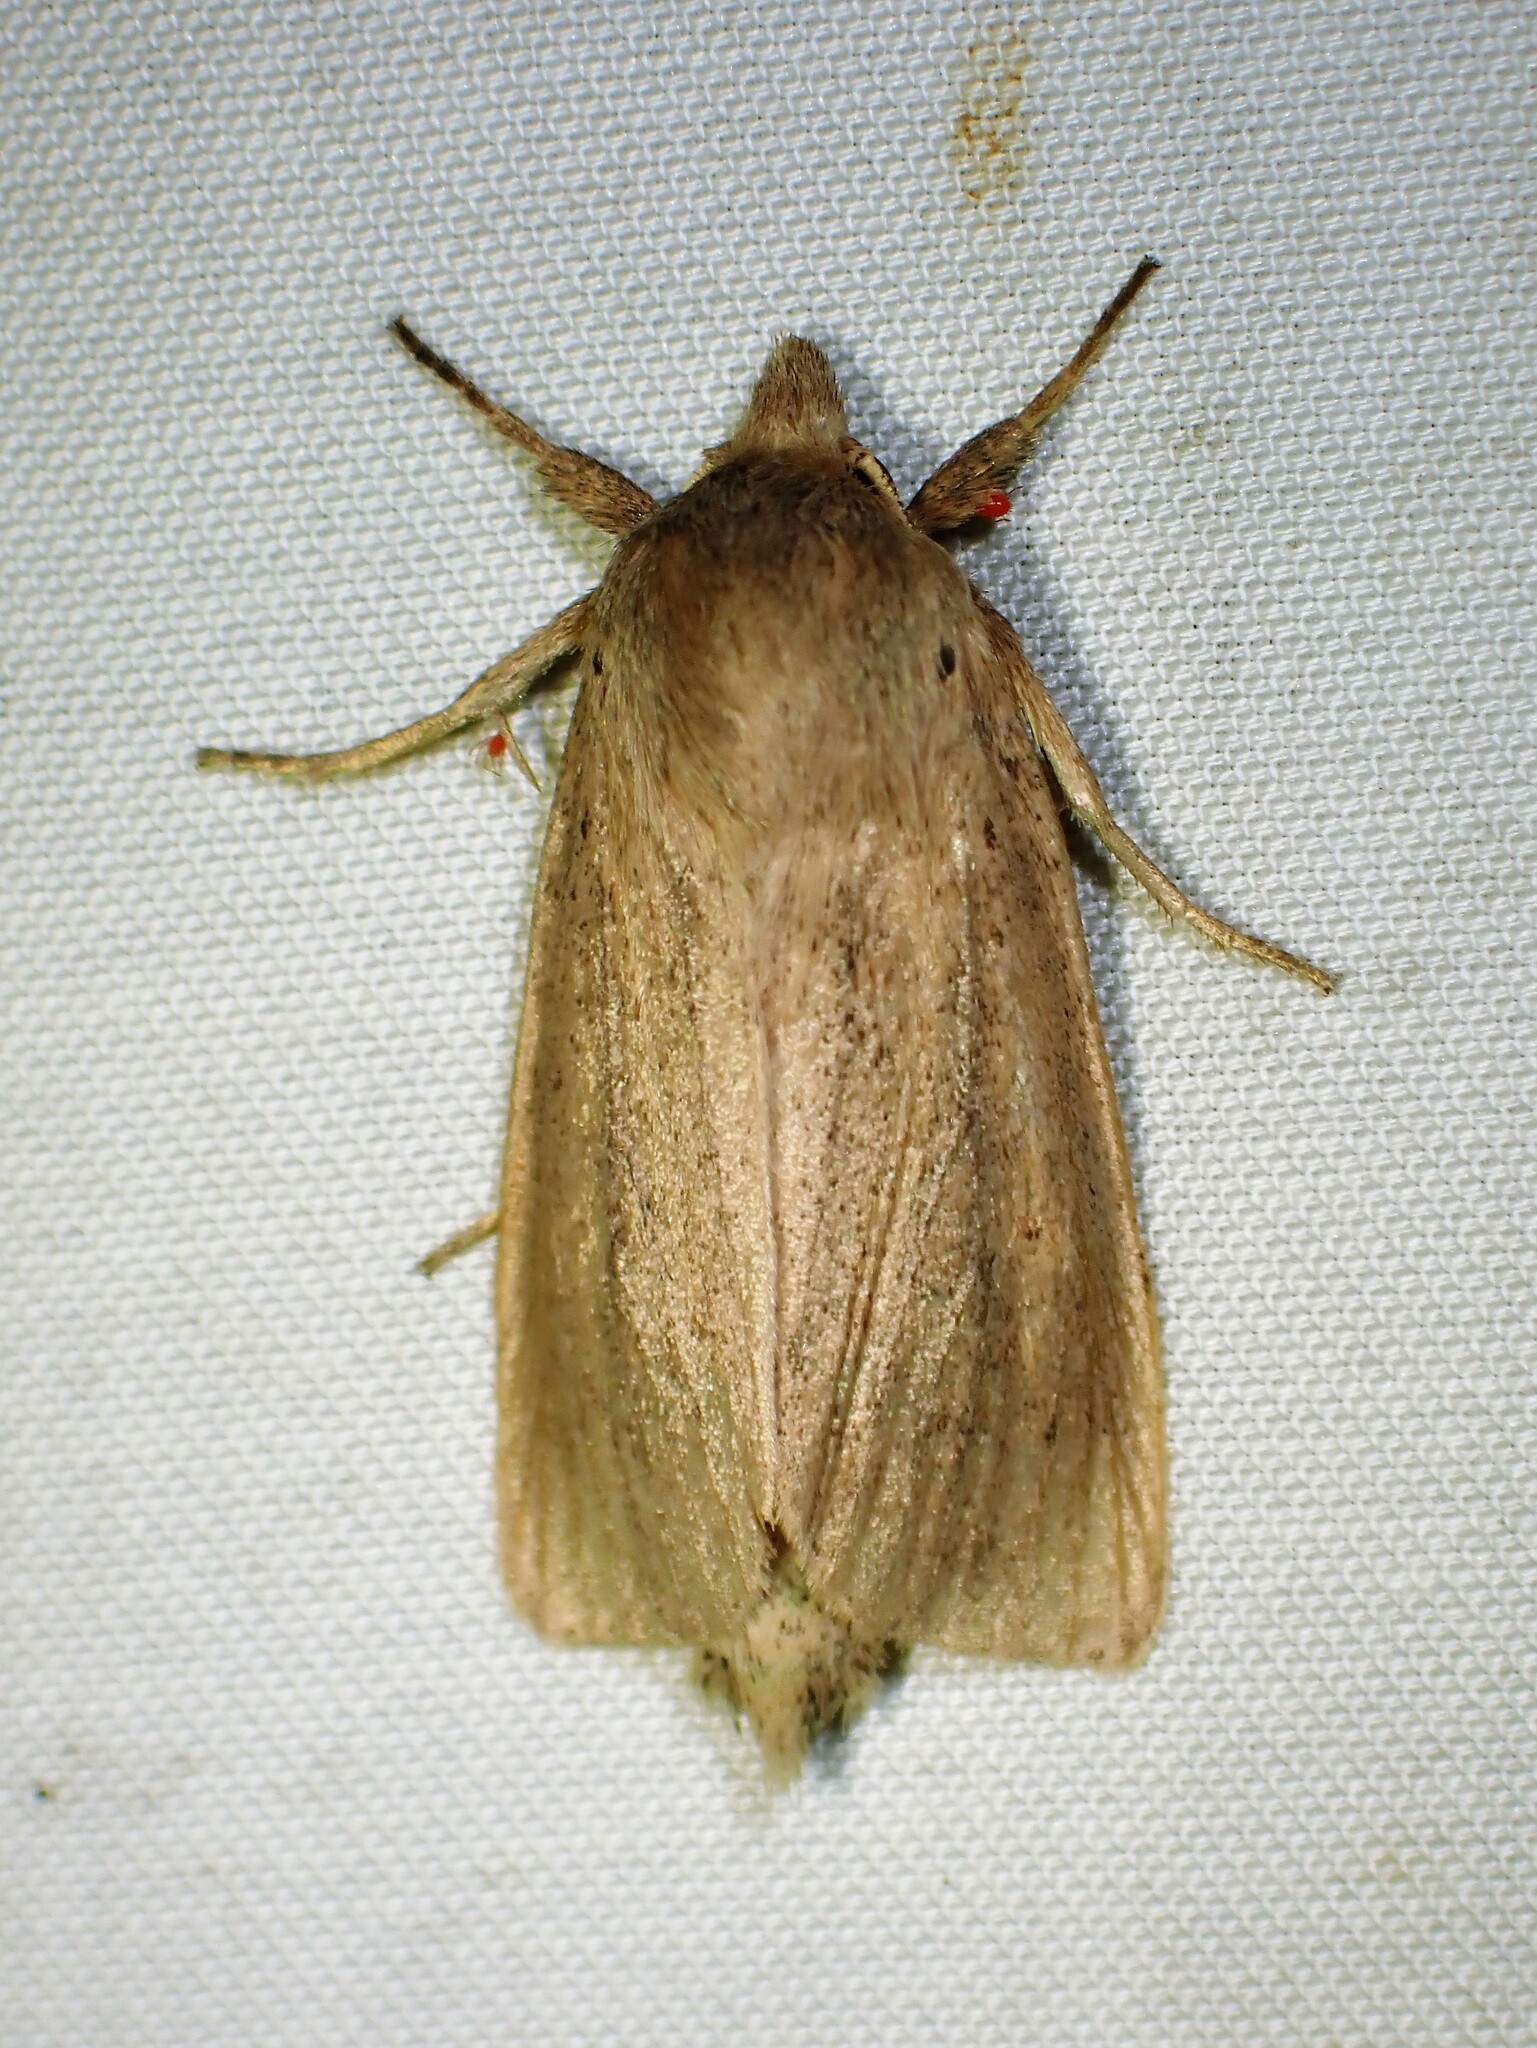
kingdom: Animalia
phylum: Arthropoda
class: Insecta
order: Lepidoptera
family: Noctuidae
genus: Globia
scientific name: Globia oblonga
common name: Oblong sedge borer moth
